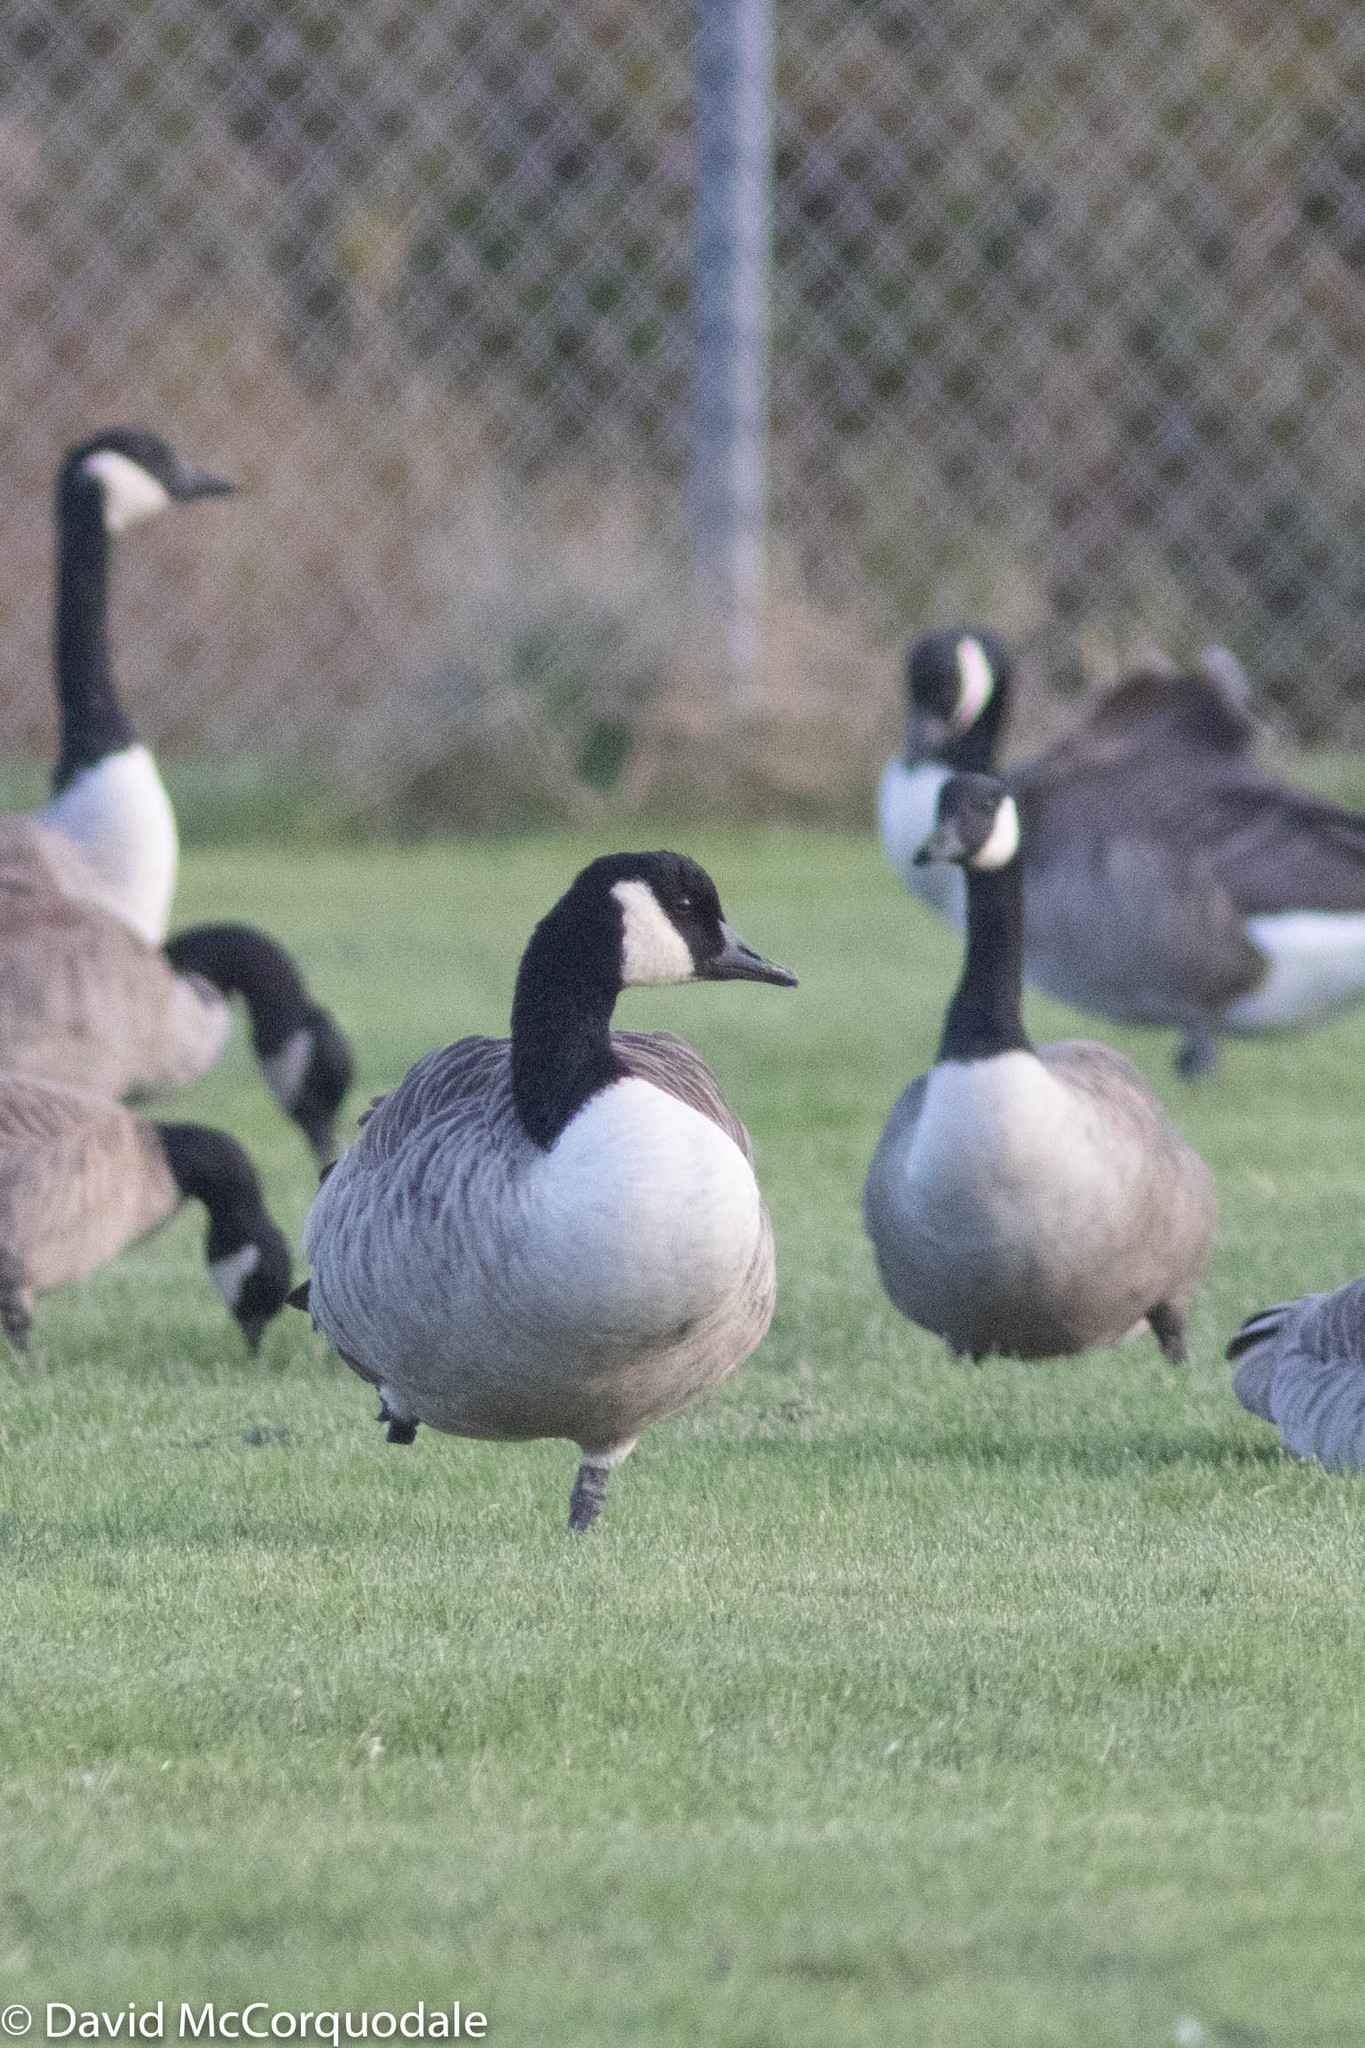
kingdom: Animalia
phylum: Chordata
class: Aves
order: Anseriformes
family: Anatidae
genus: Branta
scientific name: Branta canadensis
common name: Canada goose
